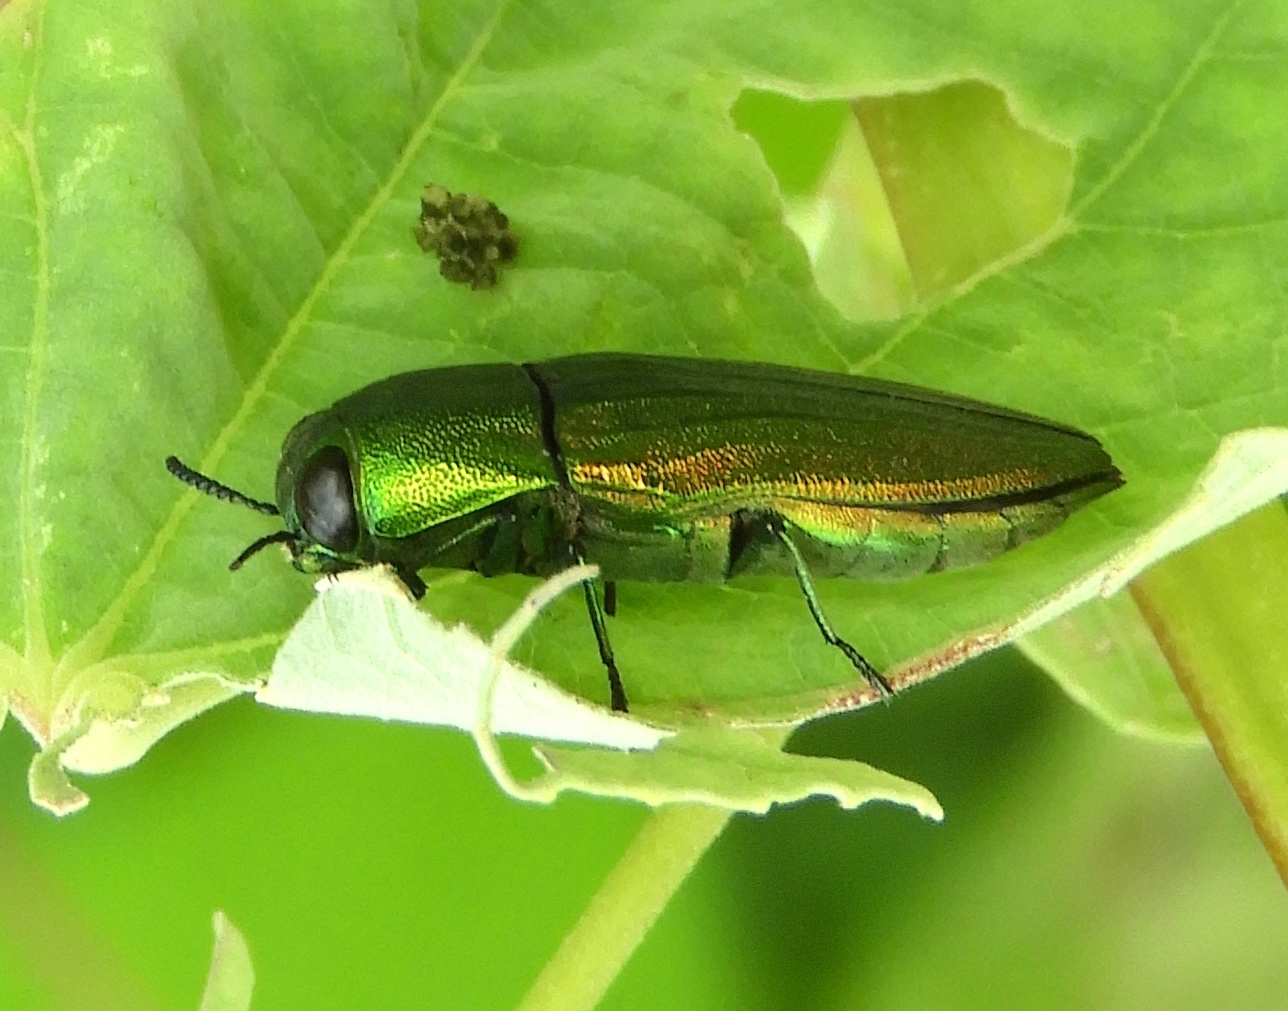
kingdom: Animalia
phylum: Arthropoda
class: Insecta
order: Coleoptera
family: Buprestidae
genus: Agaeocera
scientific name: Agaeocera scintillans
